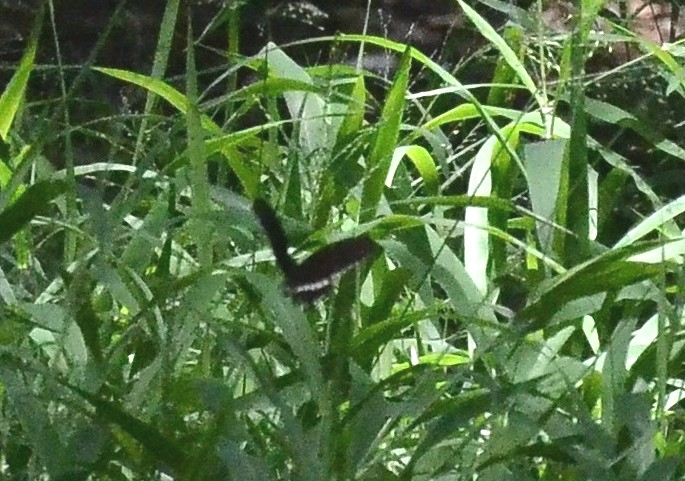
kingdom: Animalia
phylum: Arthropoda
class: Insecta
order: Lepidoptera
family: Papilionidae
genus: Papilio
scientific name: Papilio polytes
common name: Common mormon
